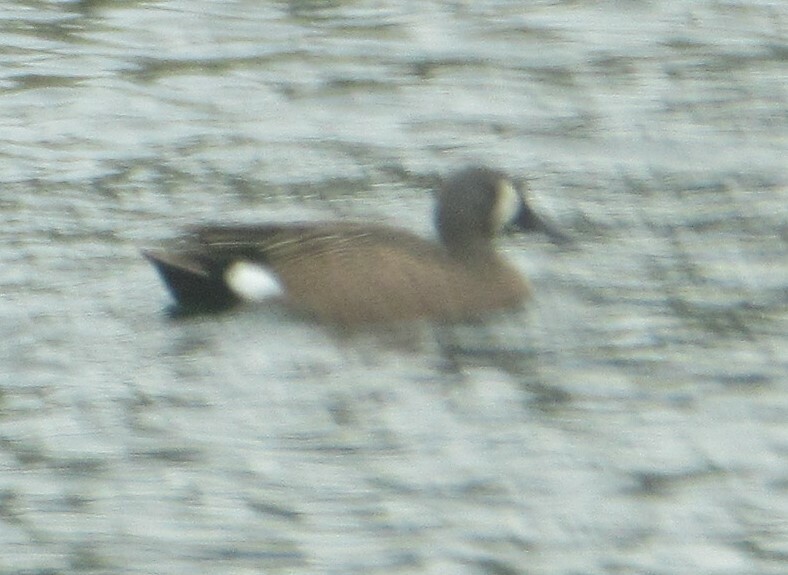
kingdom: Animalia
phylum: Chordata
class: Aves
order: Anseriformes
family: Anatidae
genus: Spatula
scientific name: Spatula discors
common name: Blue-winged teal
